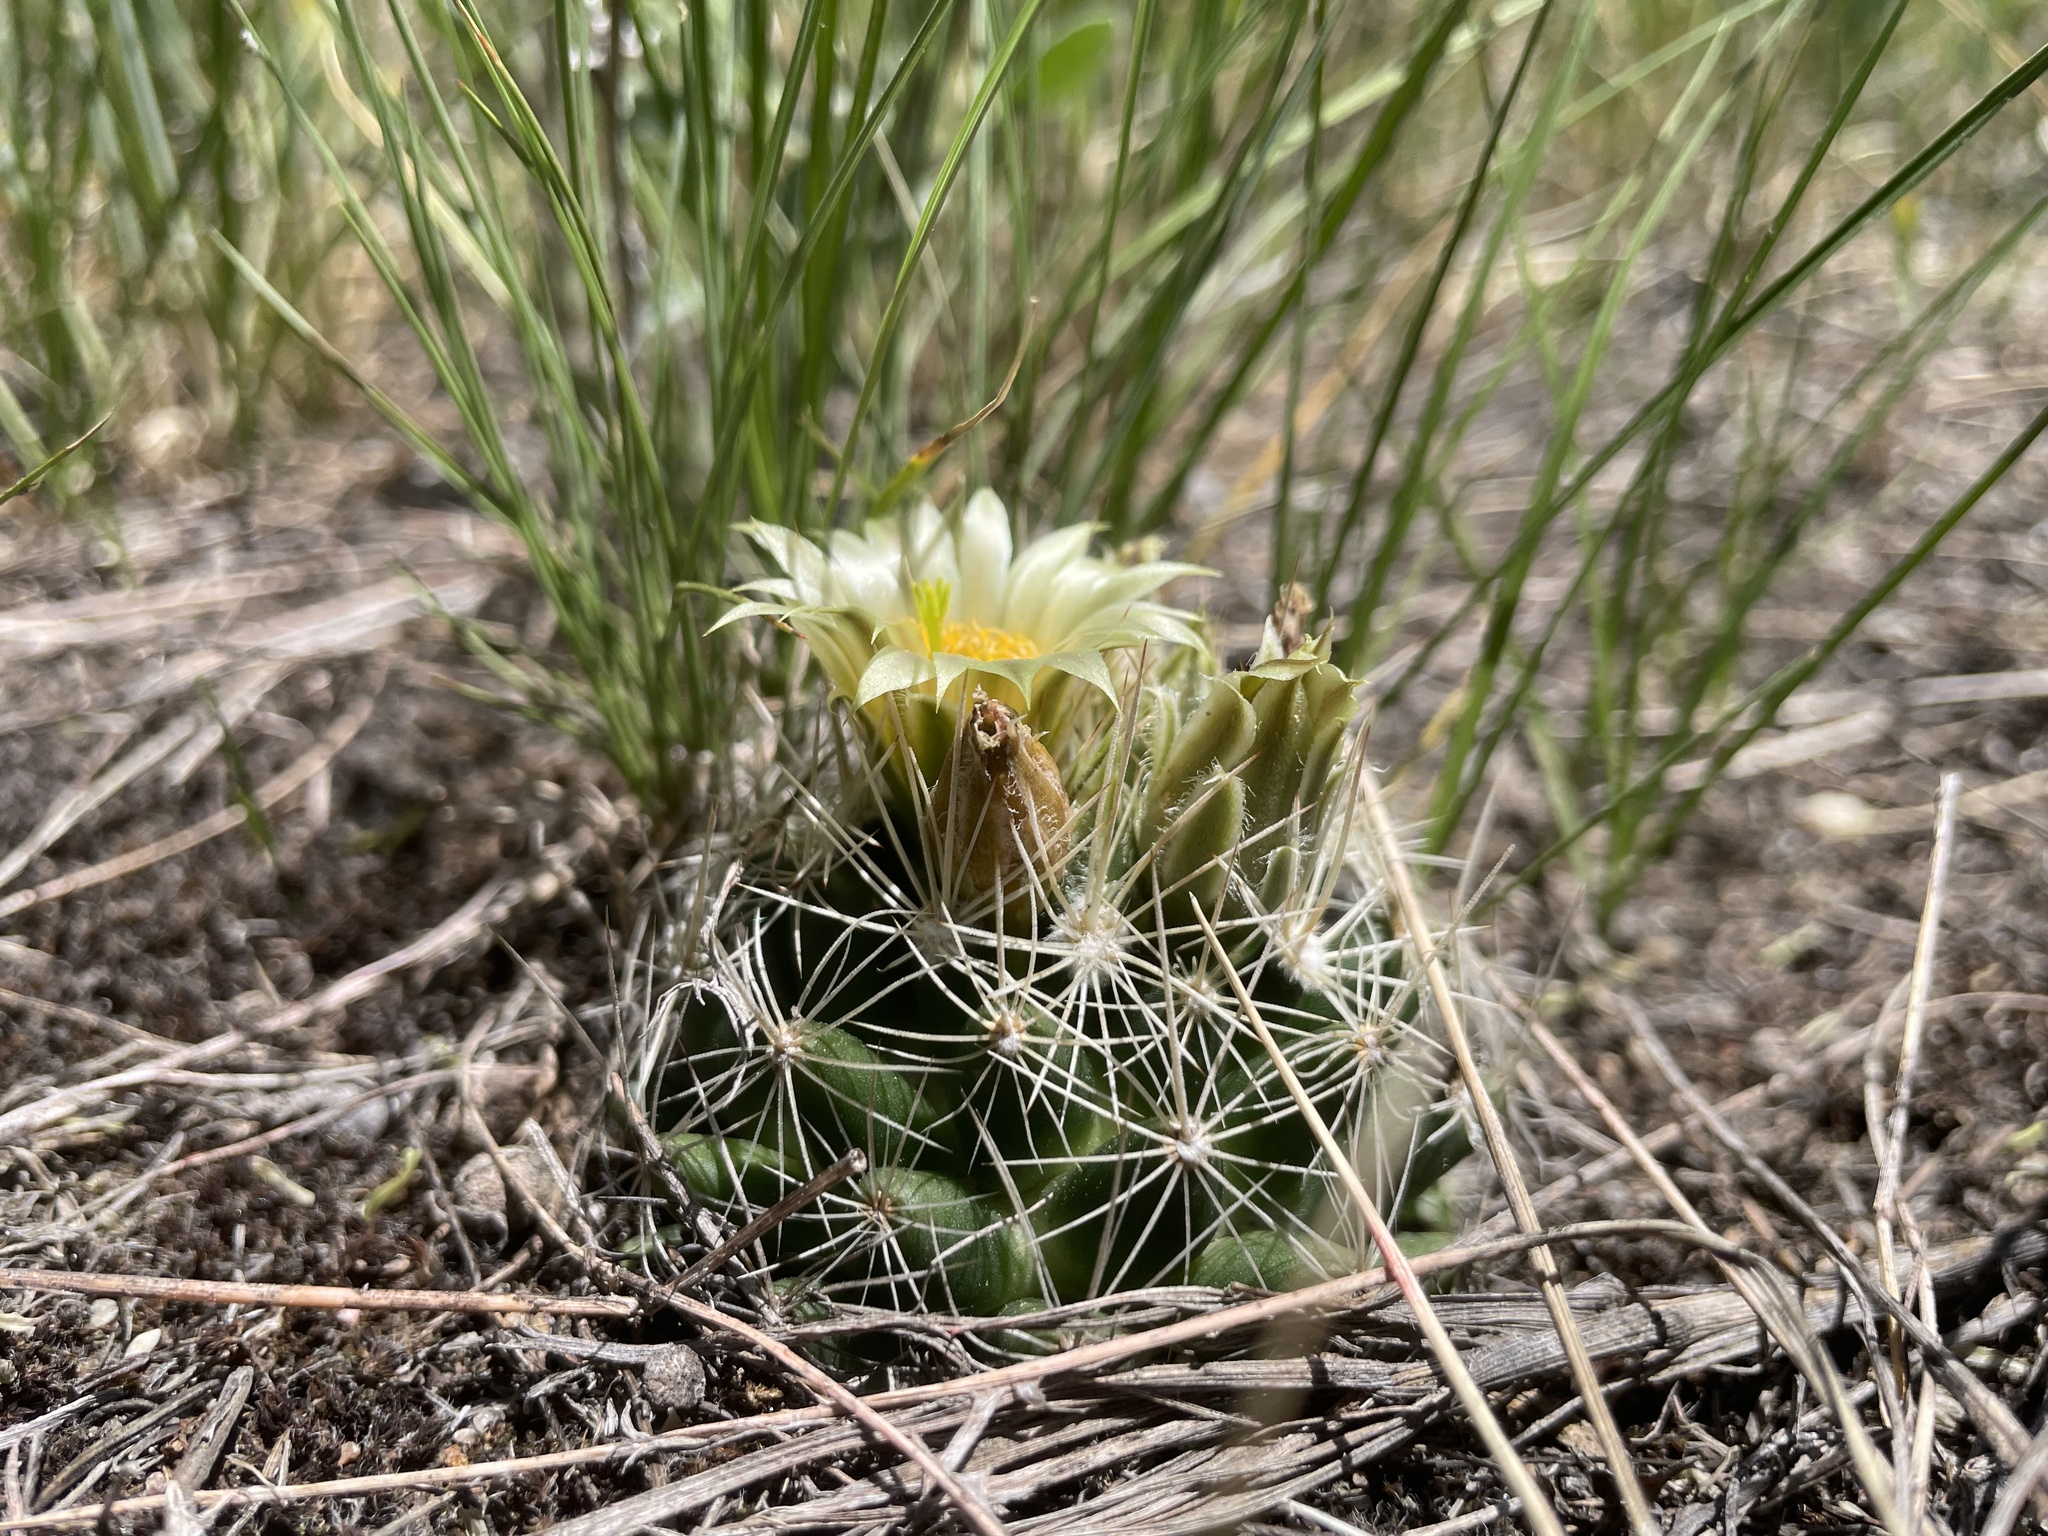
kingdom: Plantae
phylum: Tracheophyta
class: Magnoliopsida
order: Caryophyllales
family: Cactaceae
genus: Pelecyphora
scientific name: Pelecyphora missouriensis
